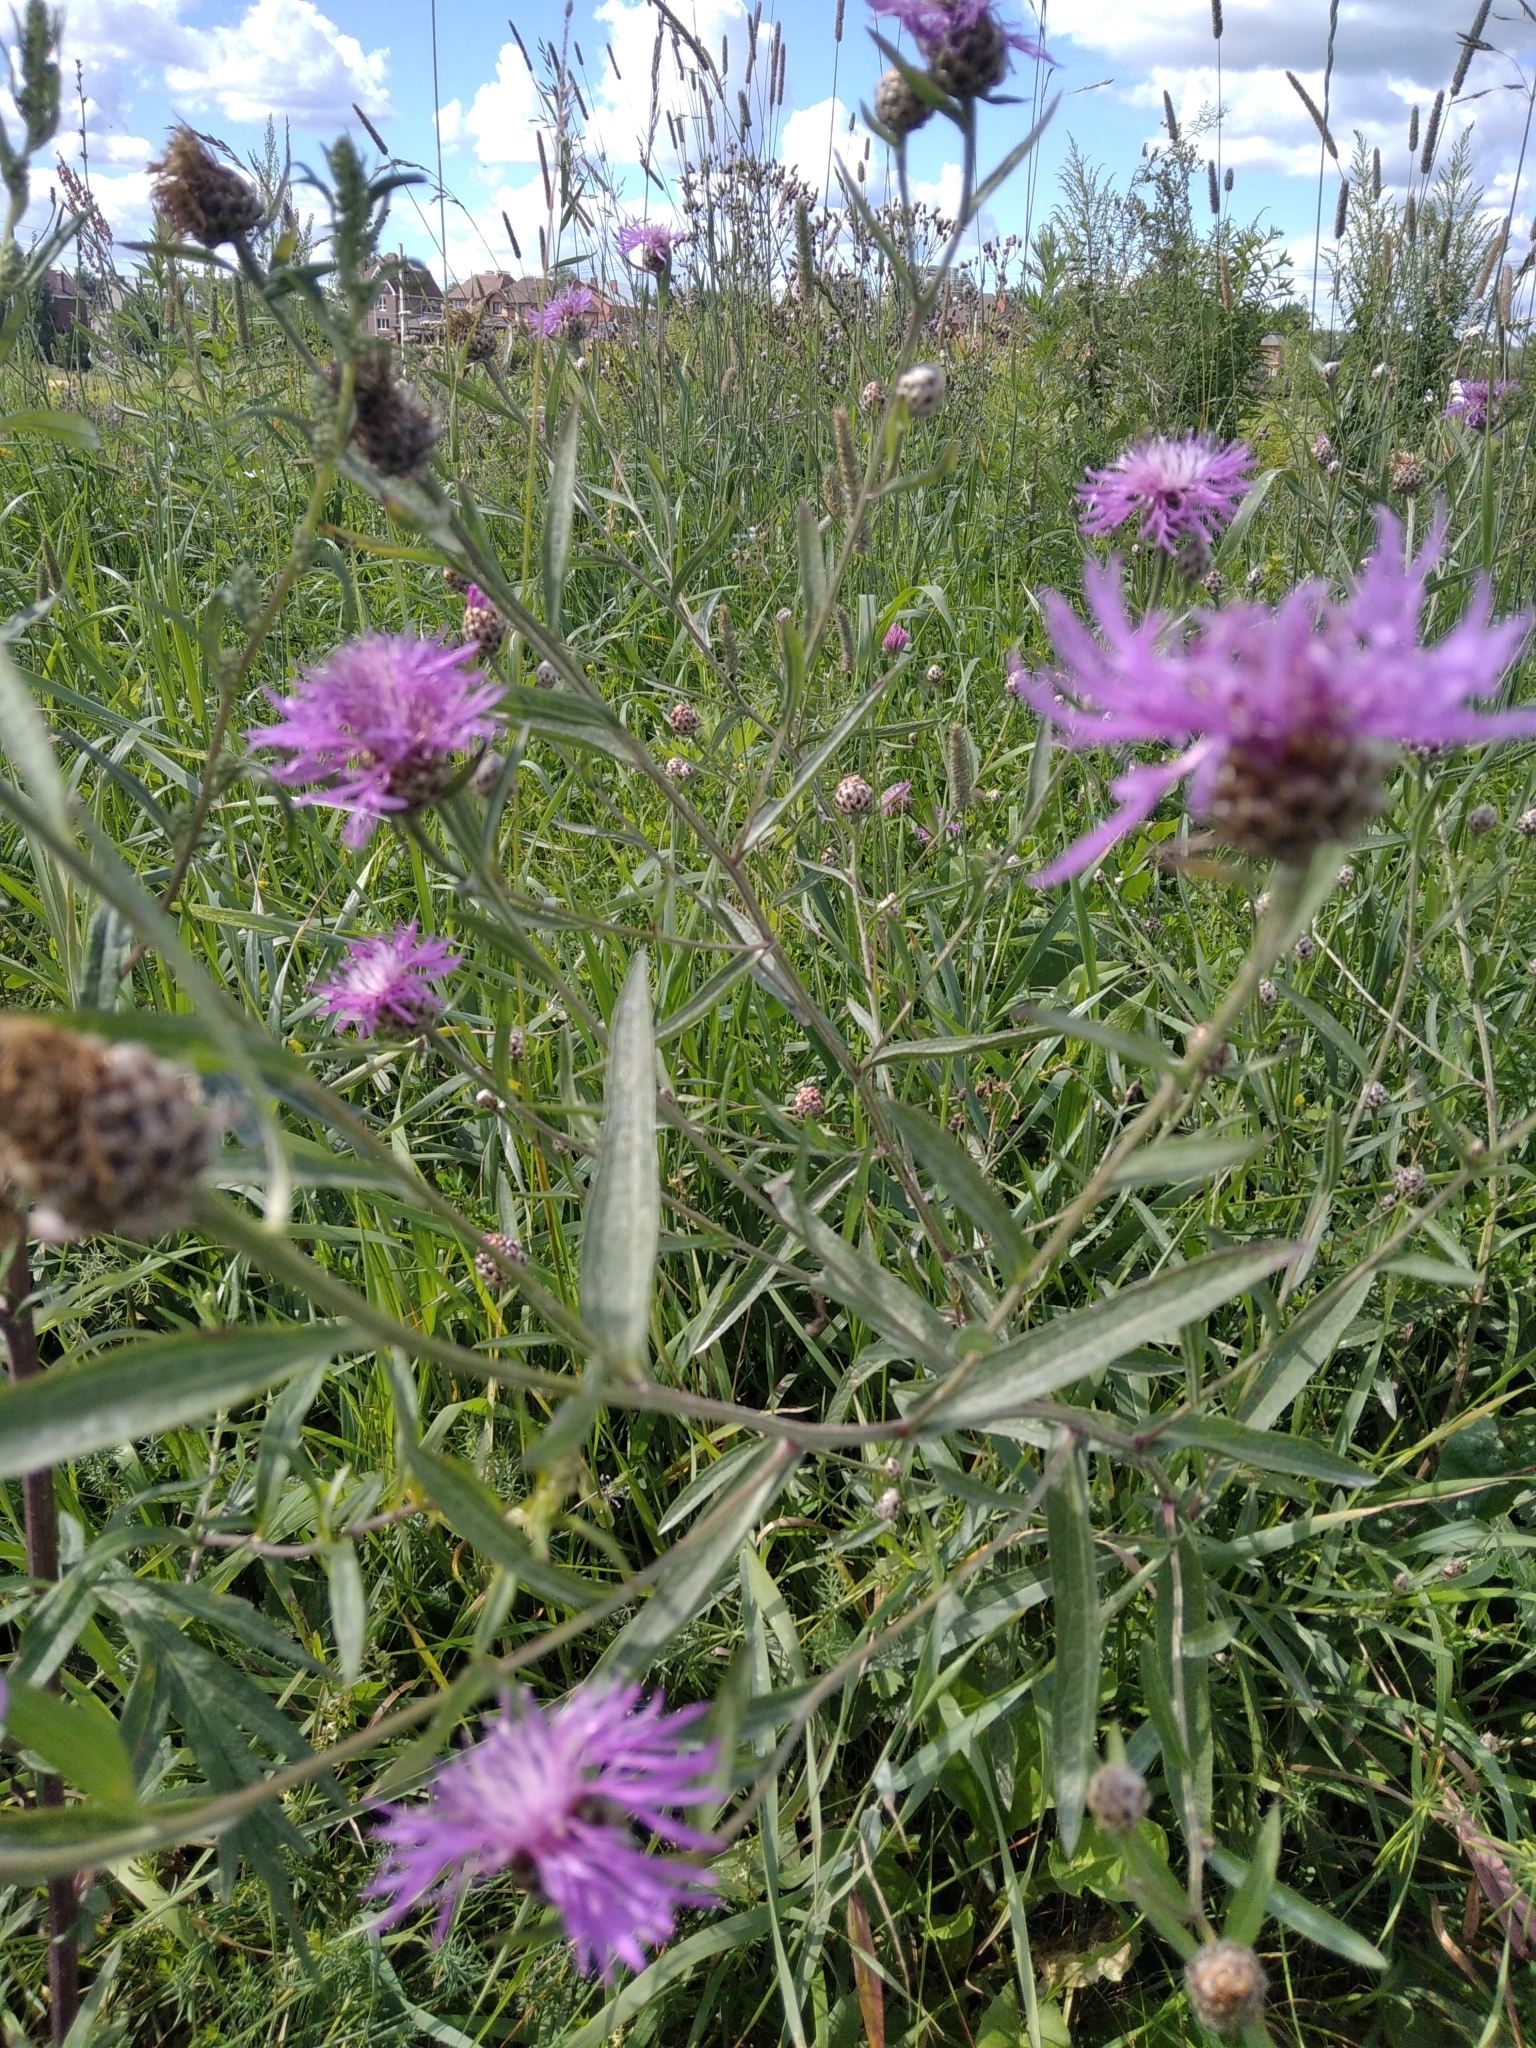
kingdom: Plantae
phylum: Tracheophyta
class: Magnoliopsida
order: Asterales
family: Asteraceae
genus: Centaurea
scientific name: Centaurea jacea
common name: Brown knapweed
